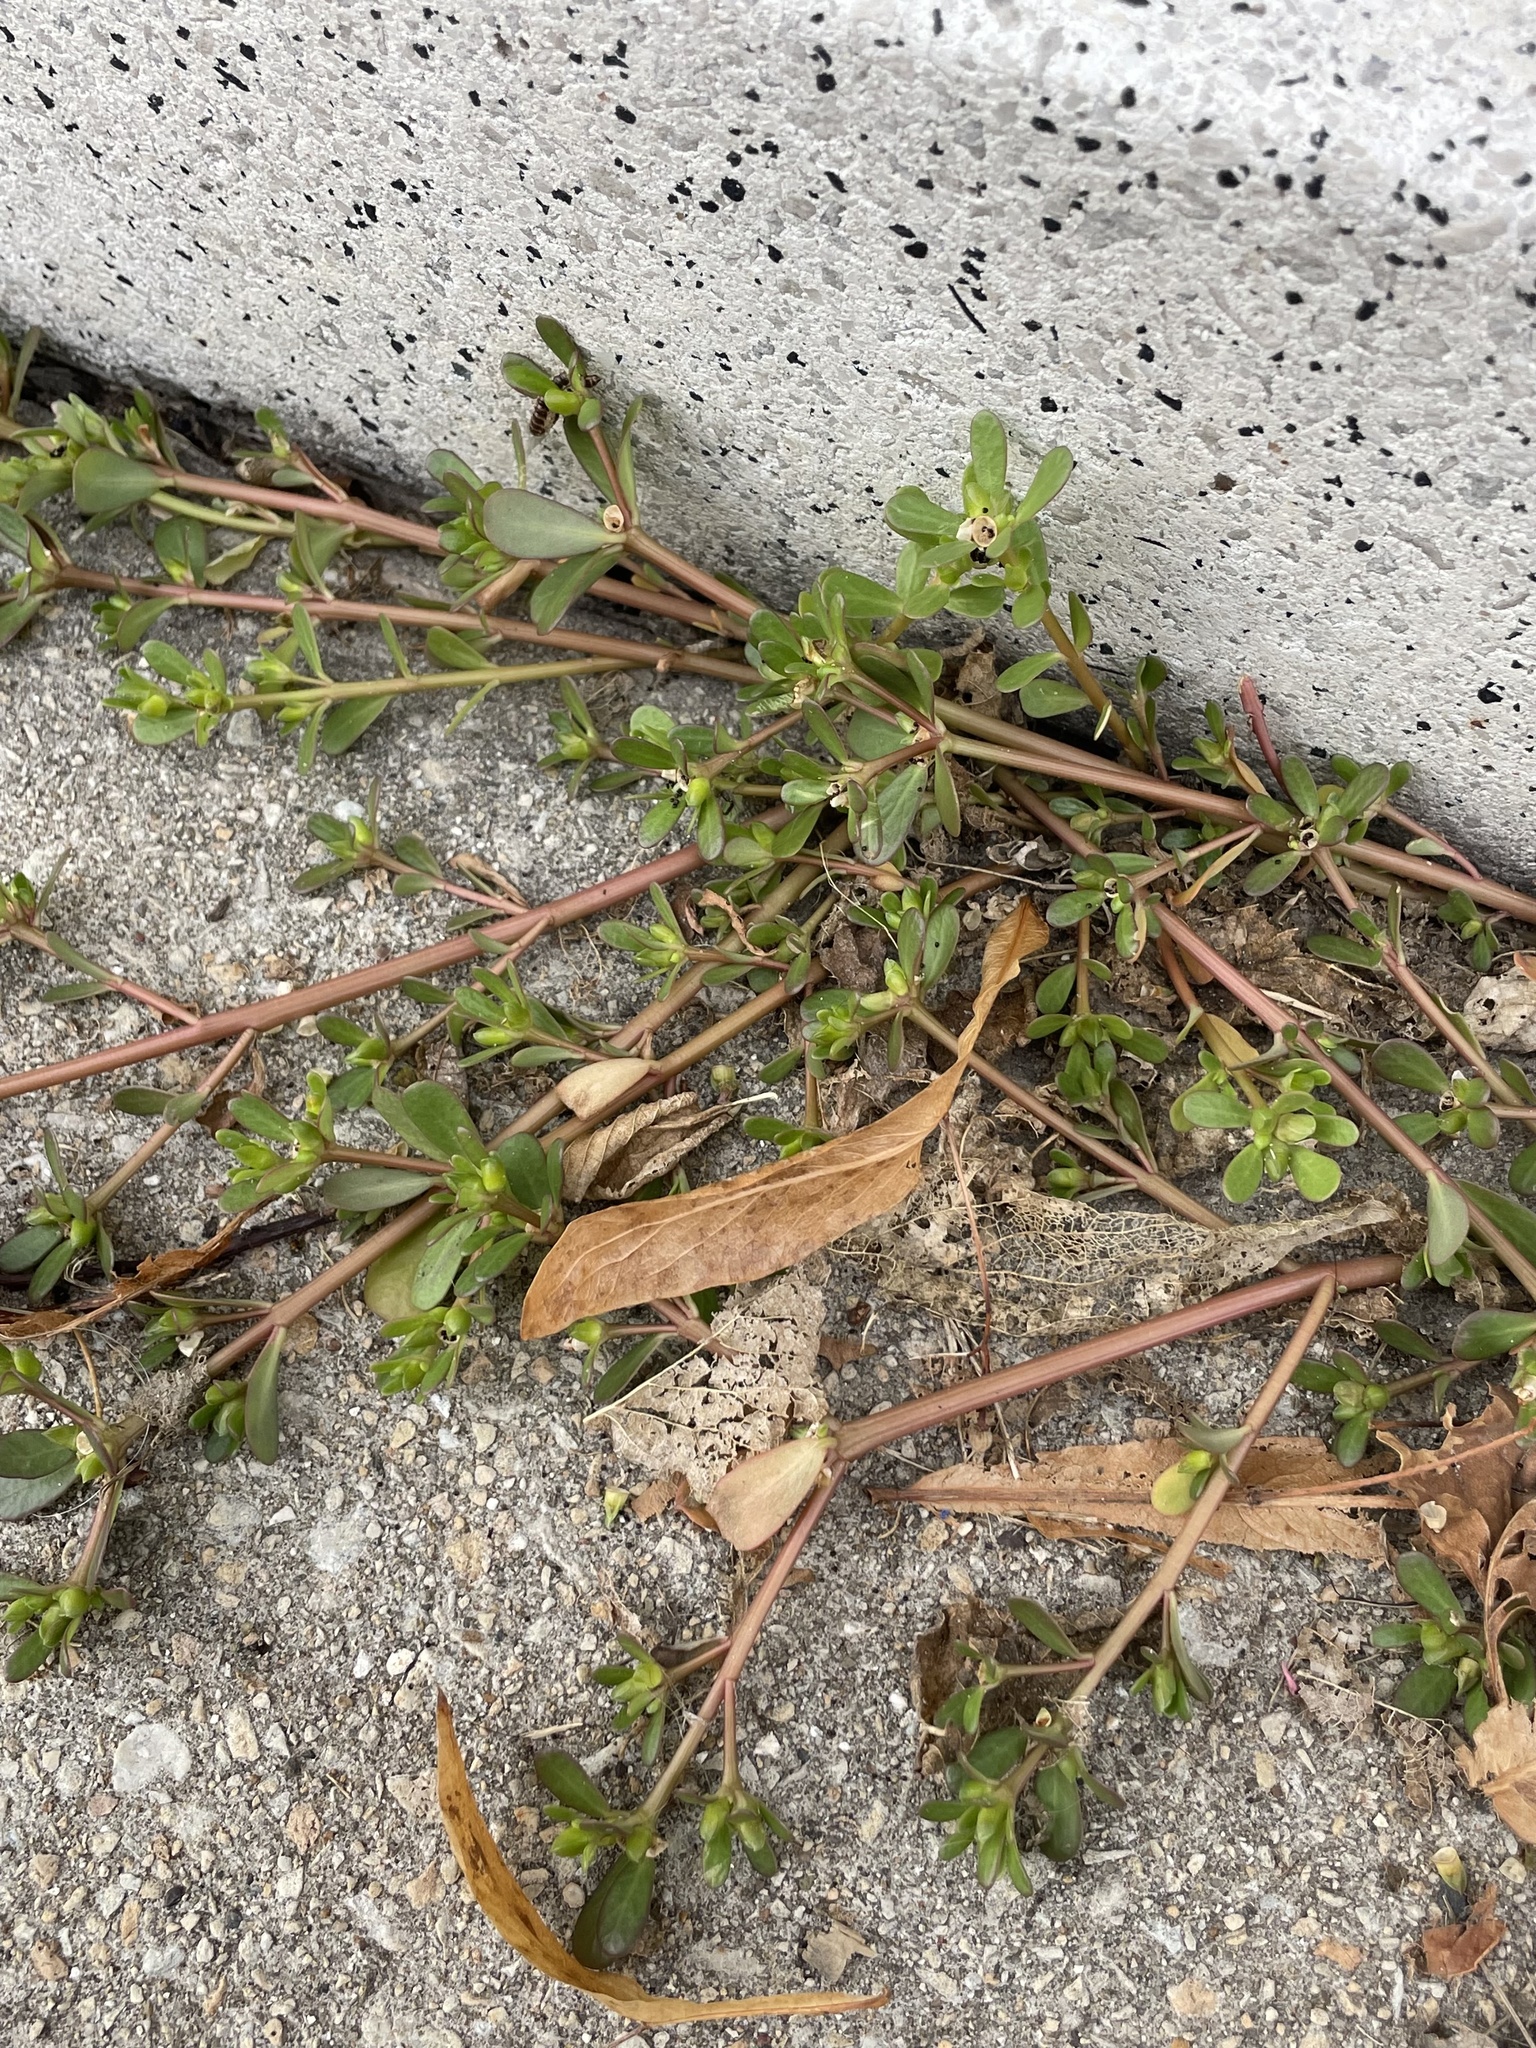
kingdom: Plantae
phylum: Tracheophyta
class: Magnoliopsida
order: Caryophyllales
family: Portulacaceae
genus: Portulaca
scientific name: Portulaca oleracea
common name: Common purslane
